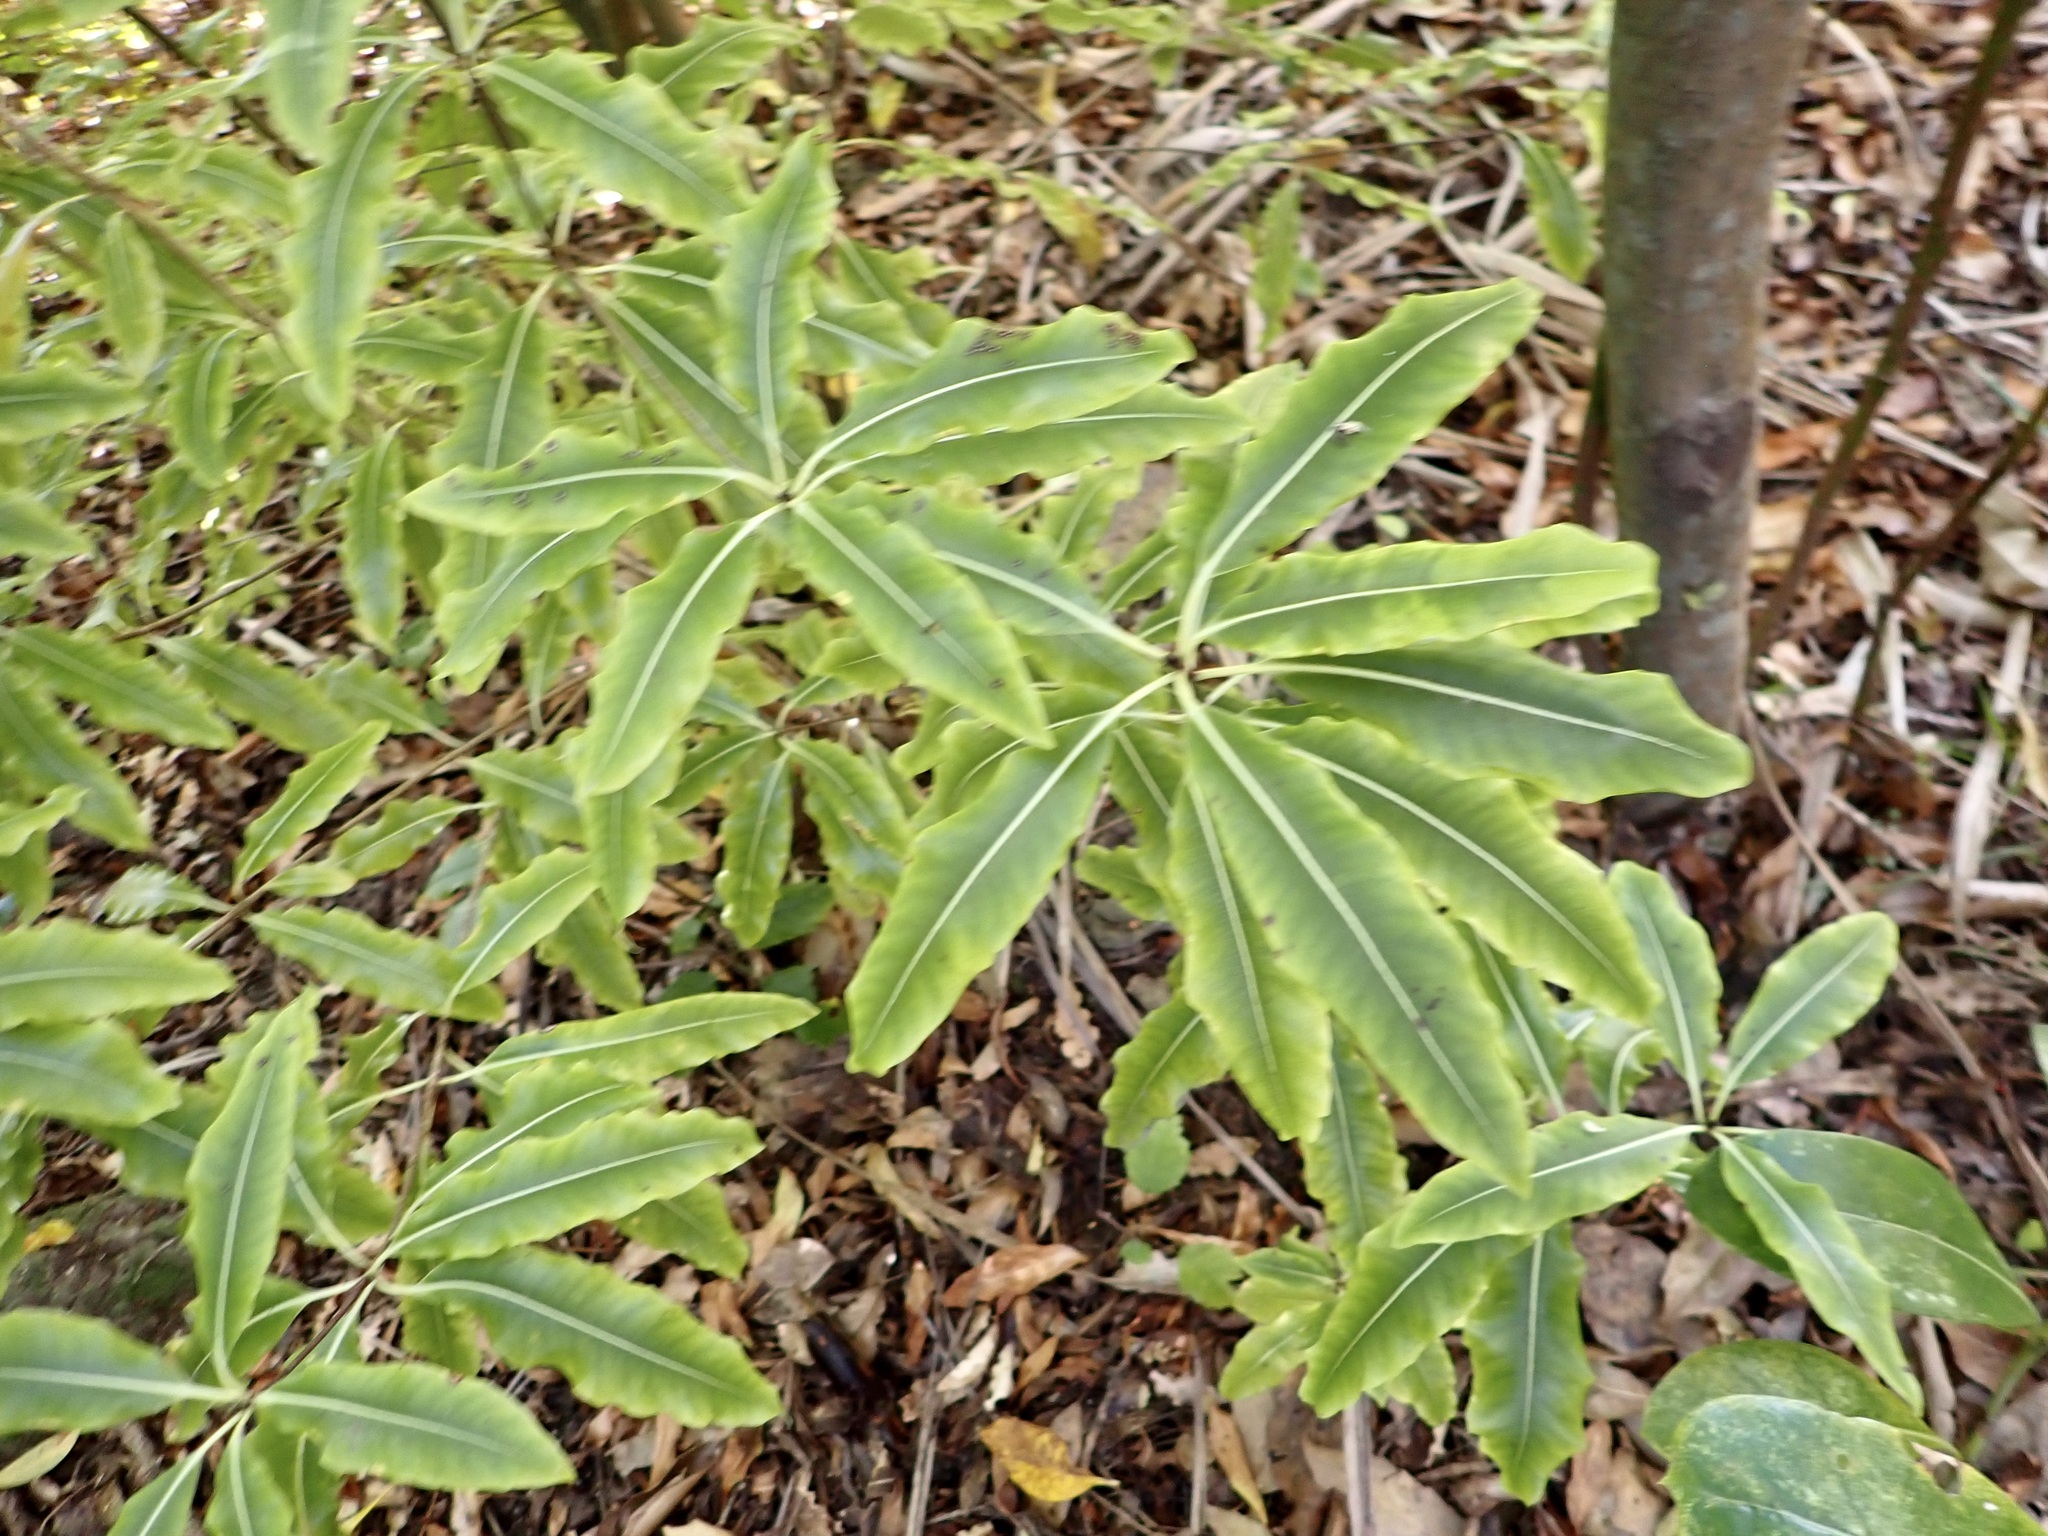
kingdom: Plantae
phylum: Tracheophyta
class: Magnoliopsida
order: Apiales
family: Pittosporaceae
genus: Pittosporum
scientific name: Pittosporum eugenioides
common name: Lemonwood
